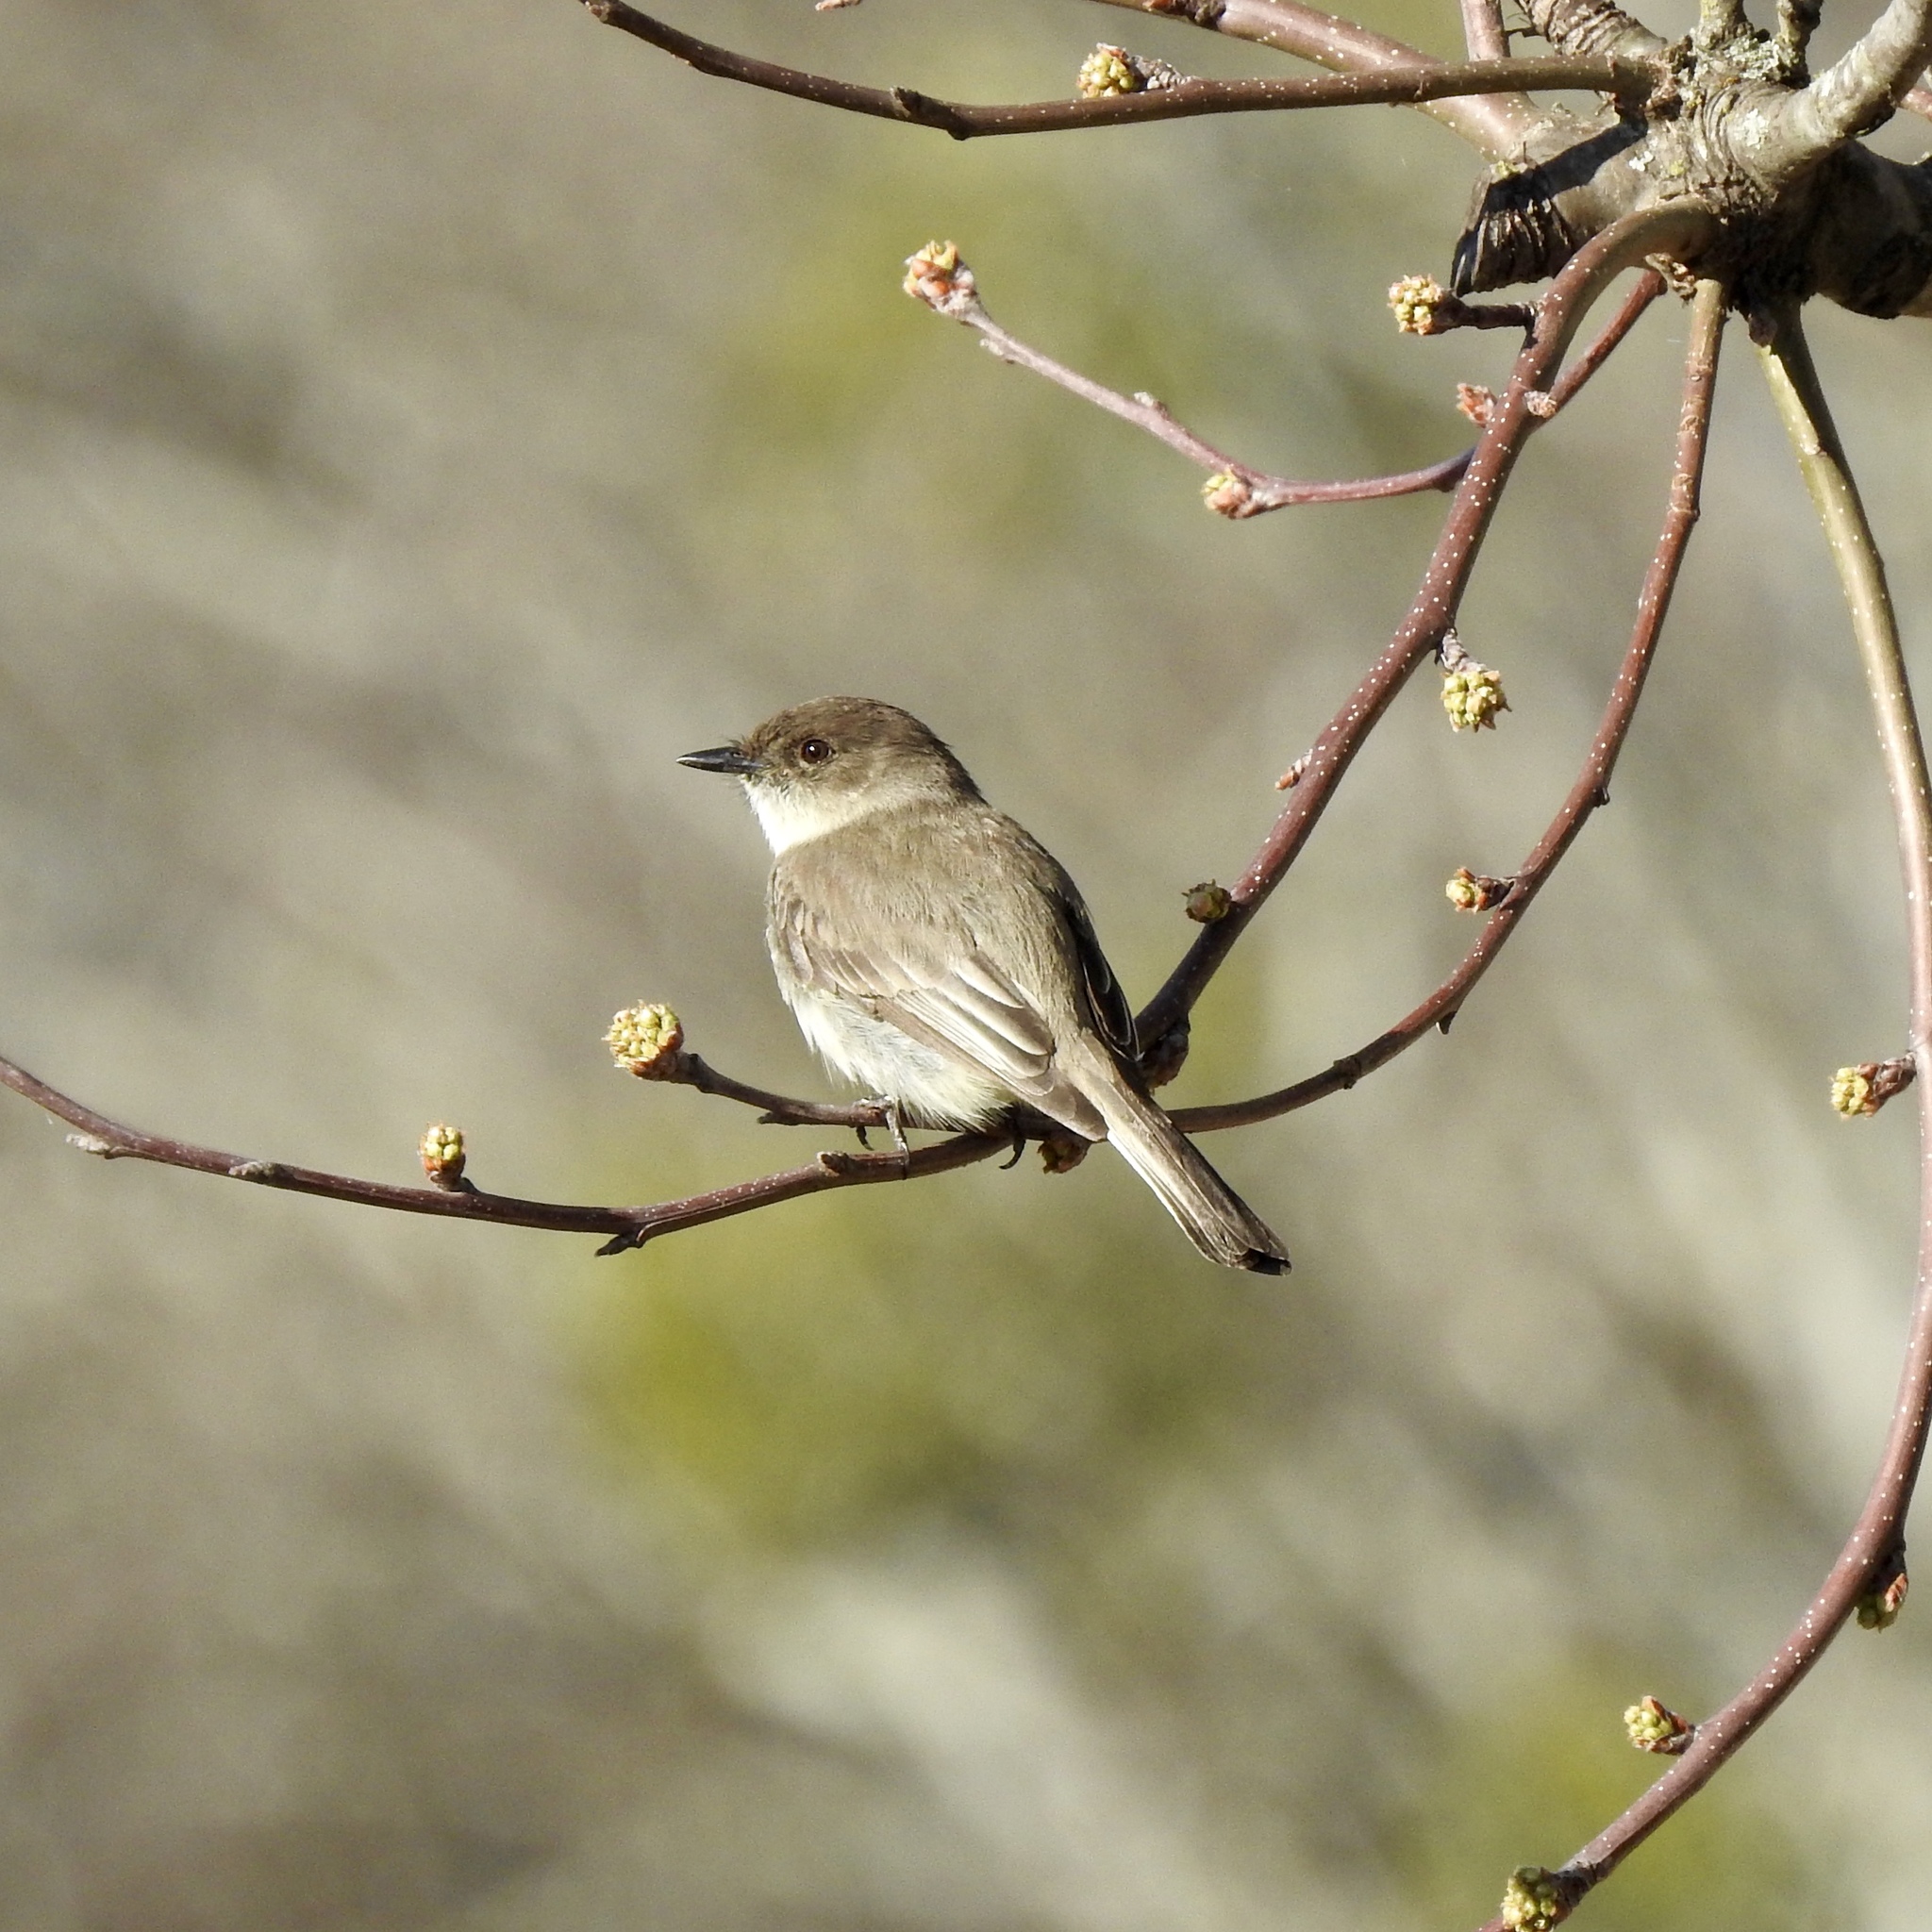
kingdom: Animalia
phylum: Chordata
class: Aves
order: Passeriformes
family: Tyrannidae
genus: Sayornis
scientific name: Sayornis phoebe
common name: Eastern phoebe
